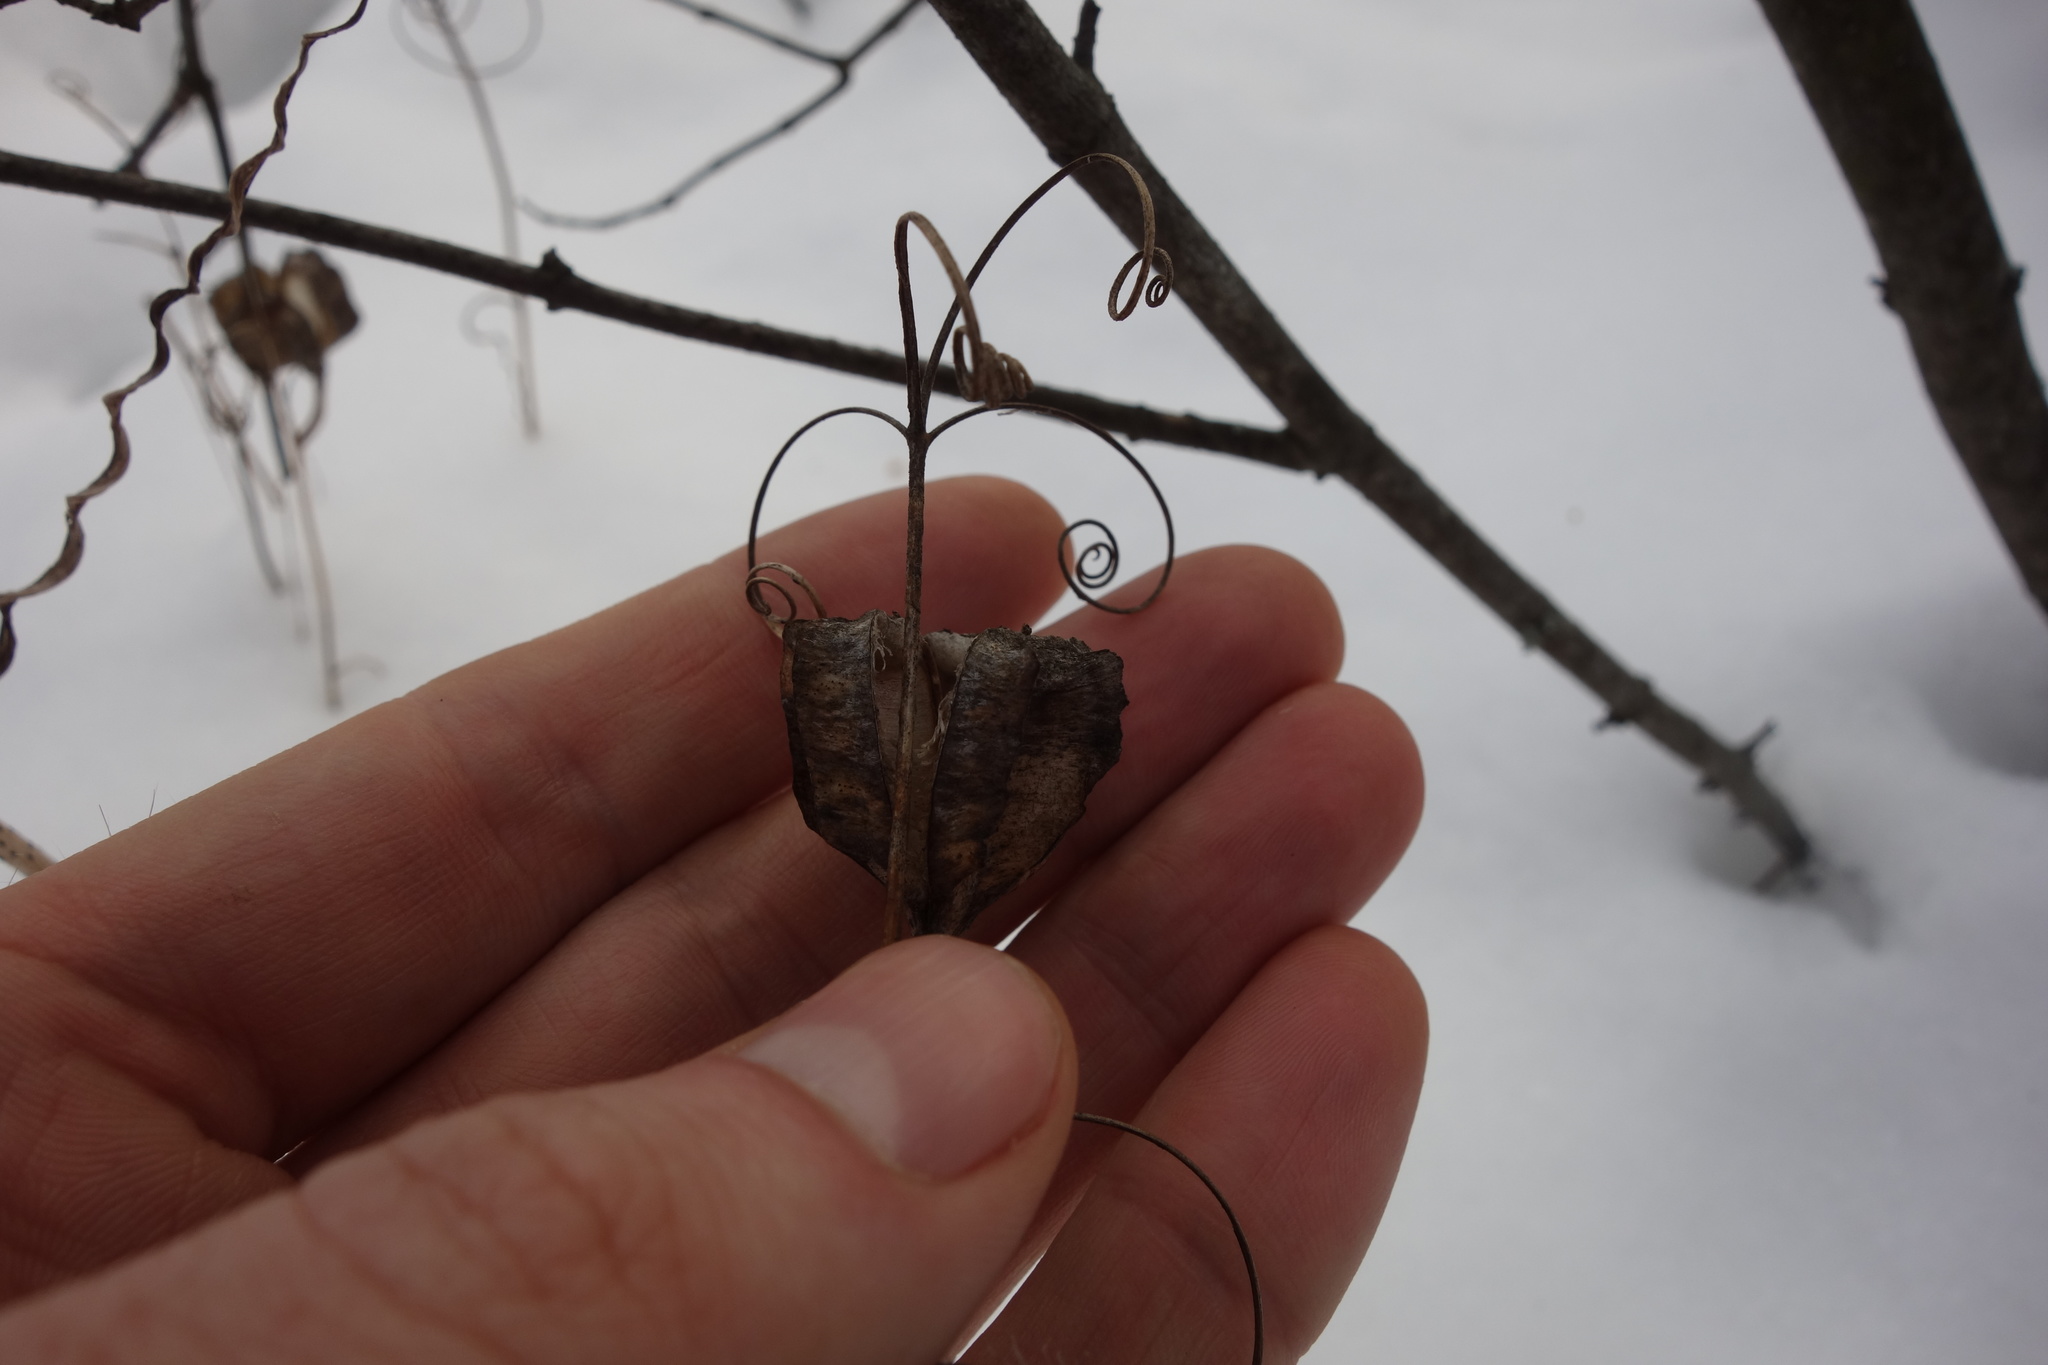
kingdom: Plantae
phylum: Tracheophyta
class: Liliopsida
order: Liliales
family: Liliaceae
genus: Fritillaria
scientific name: Fritillaria ruthenica
